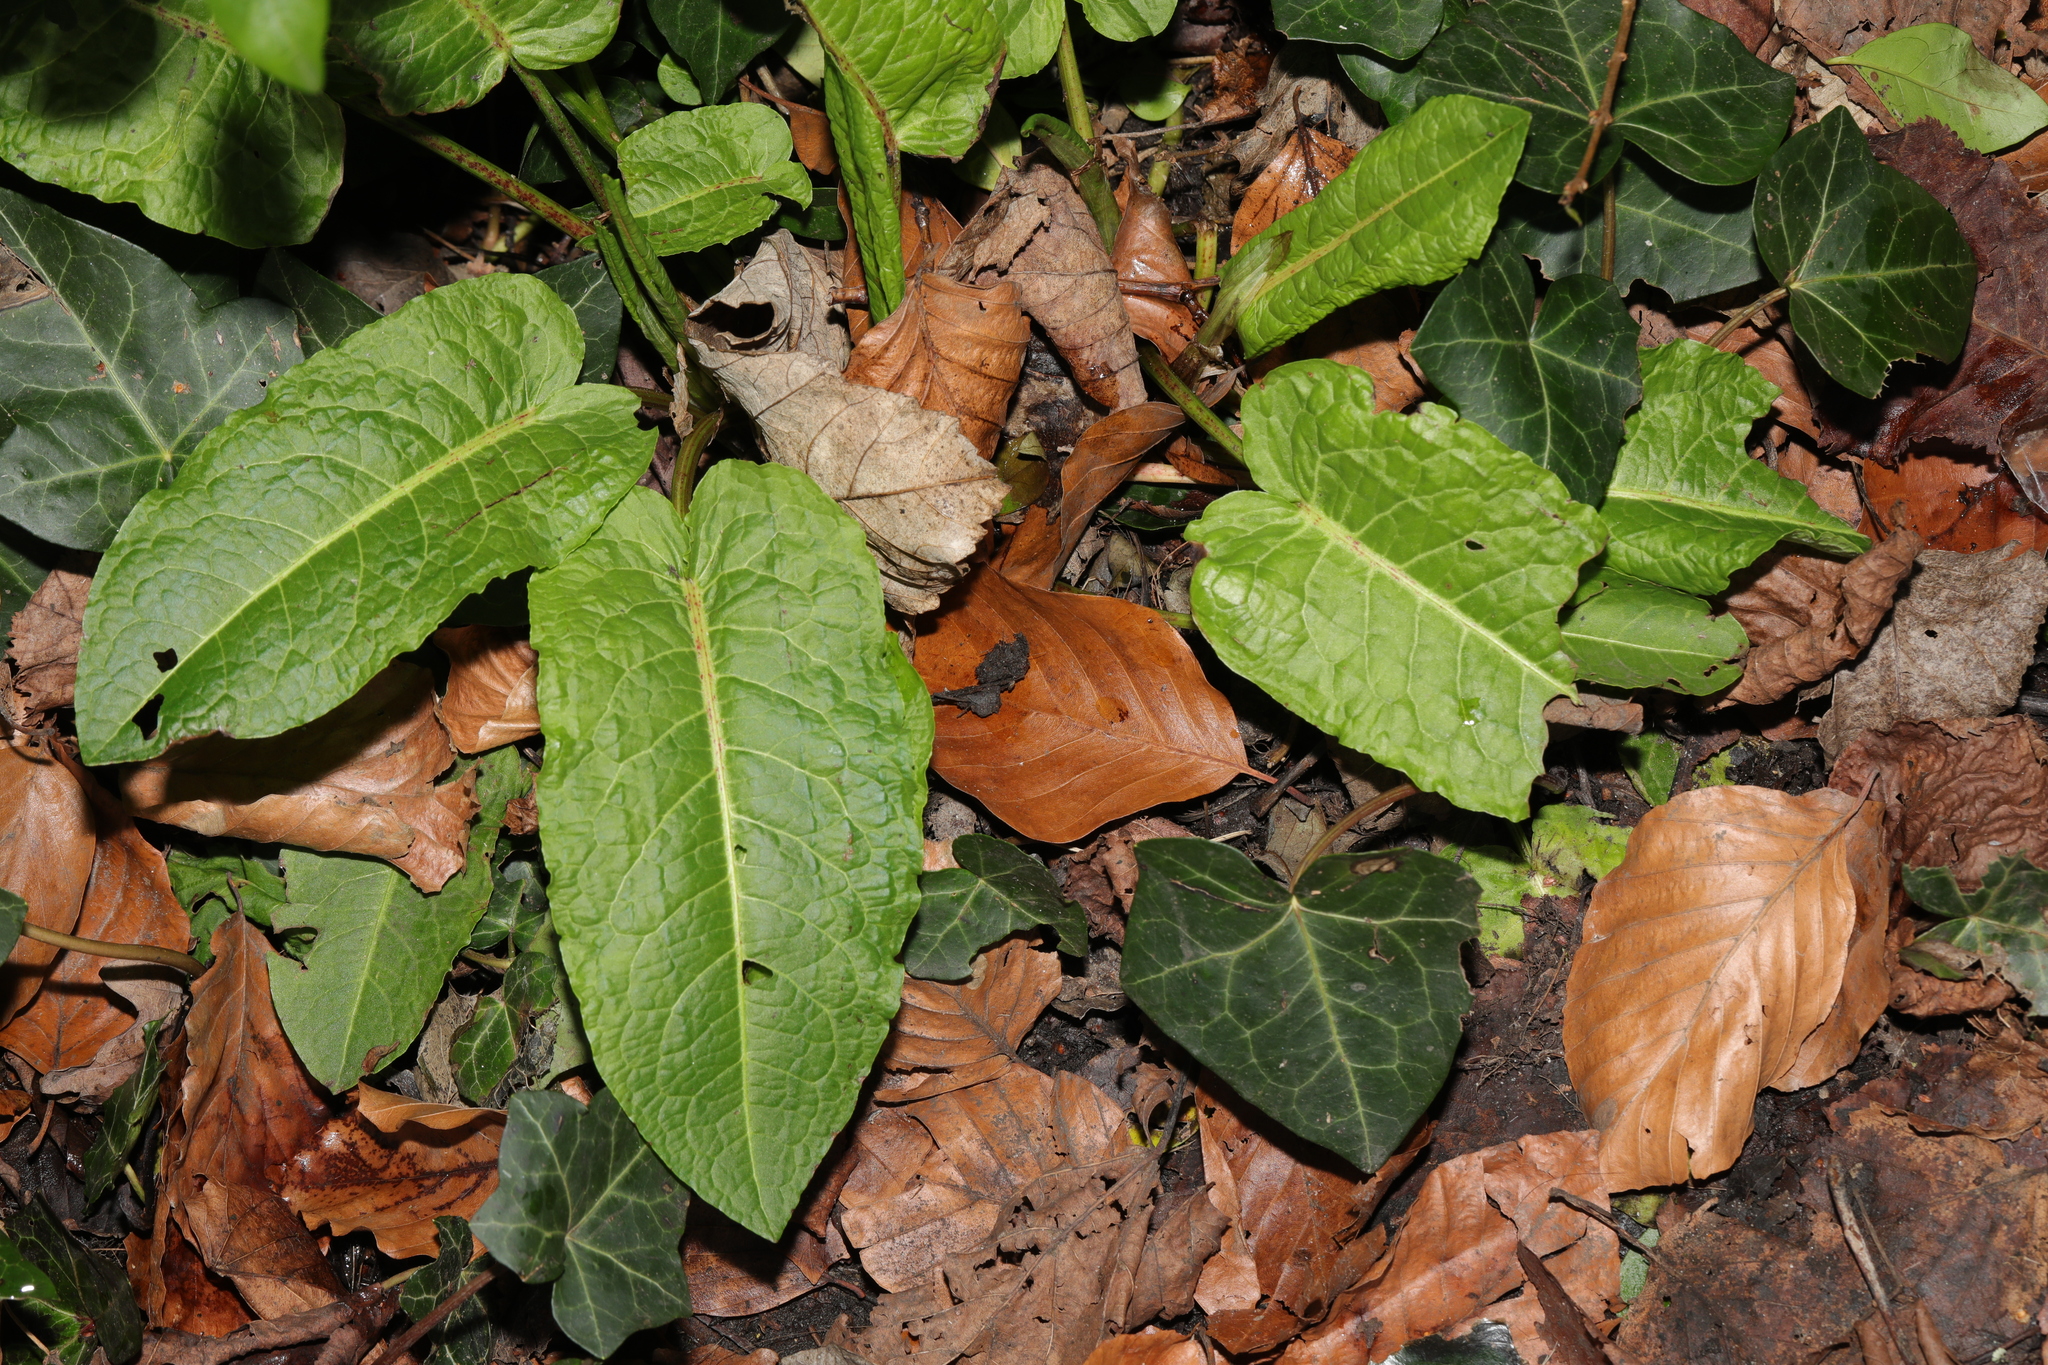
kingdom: Plantae
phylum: Tracheophyta
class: Magnoliopsida
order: Caryophyllales
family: Polygonaceae
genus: Rumex
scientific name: Rumex obtusifolius
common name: Bitter dock
